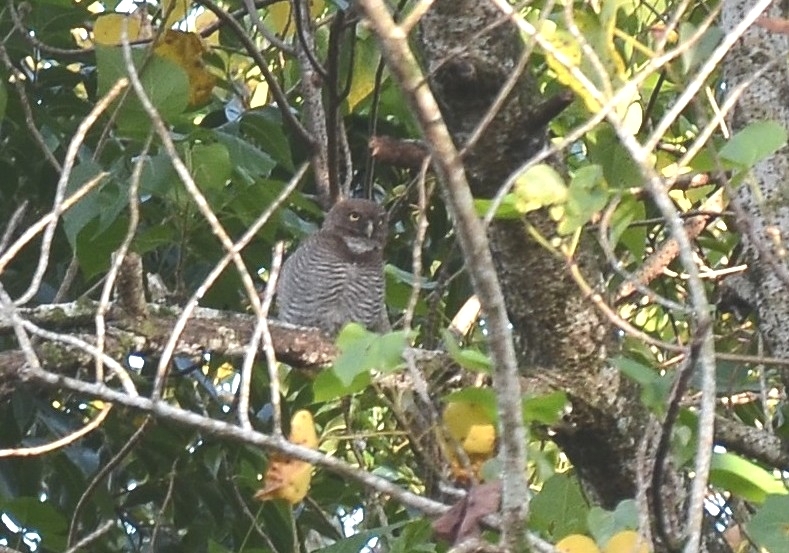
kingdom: Animalia
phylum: Chordata
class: Aves
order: Strigiformes
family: Strigidae
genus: Glaucidium
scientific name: Glaucidium radiatum
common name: Jungle owlet
